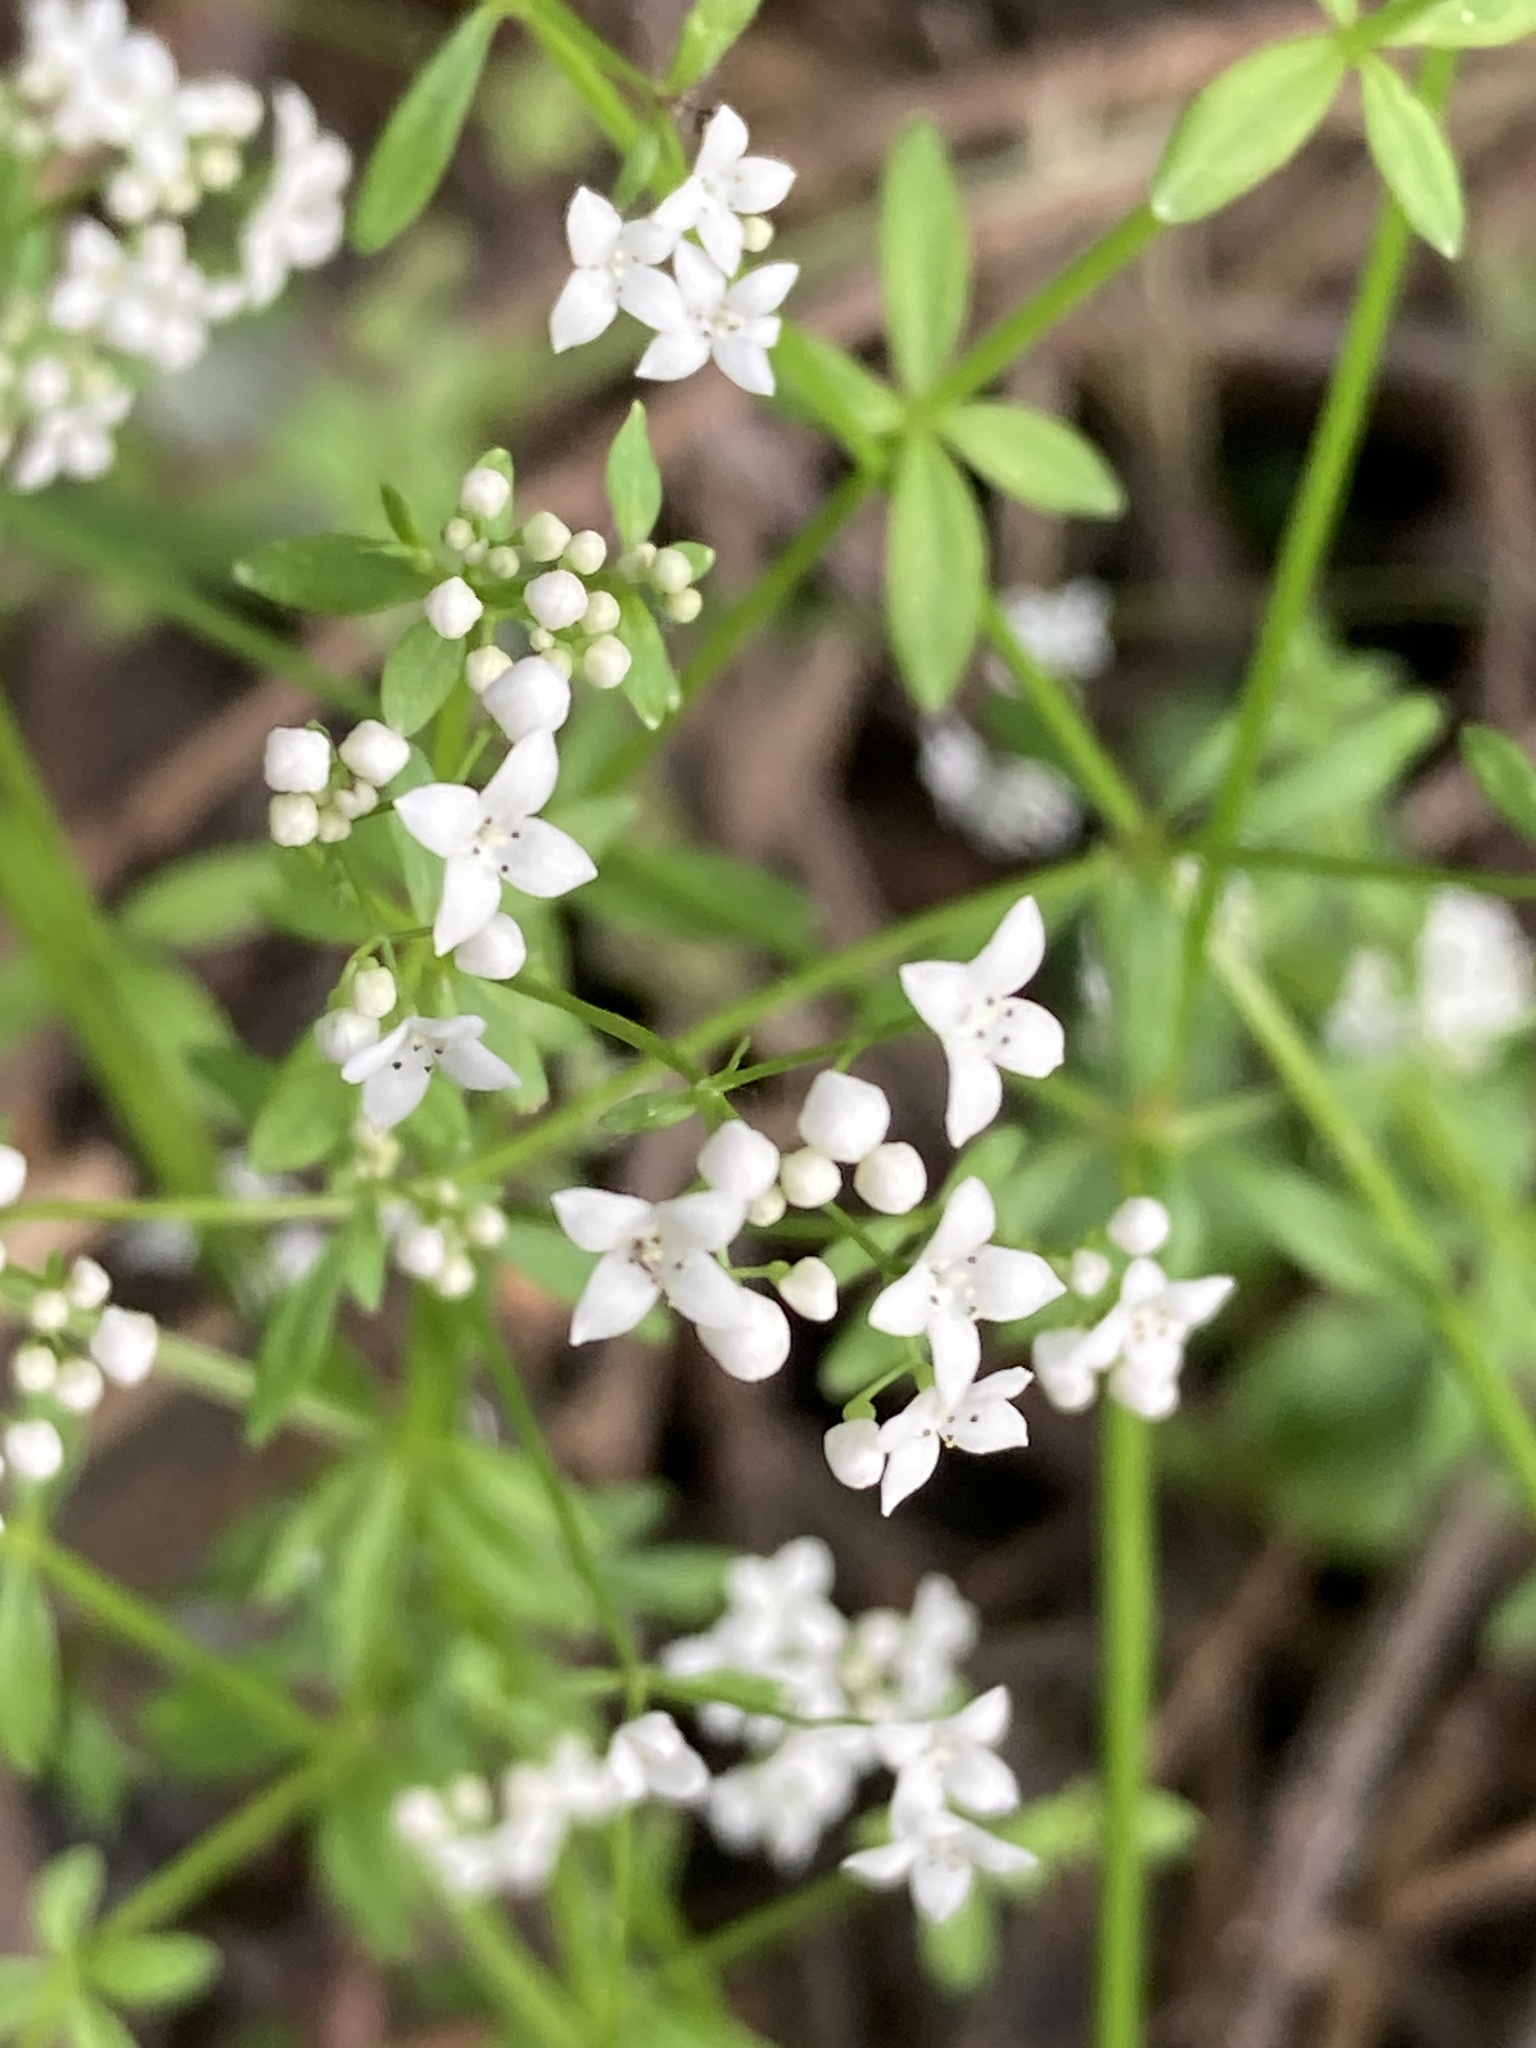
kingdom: Plantae
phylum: Tracheophyta
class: Magnoliopsida
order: Gentianales
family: Rubiaceae
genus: Galium
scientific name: Galium palustre
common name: Common marsh-bedstraw
